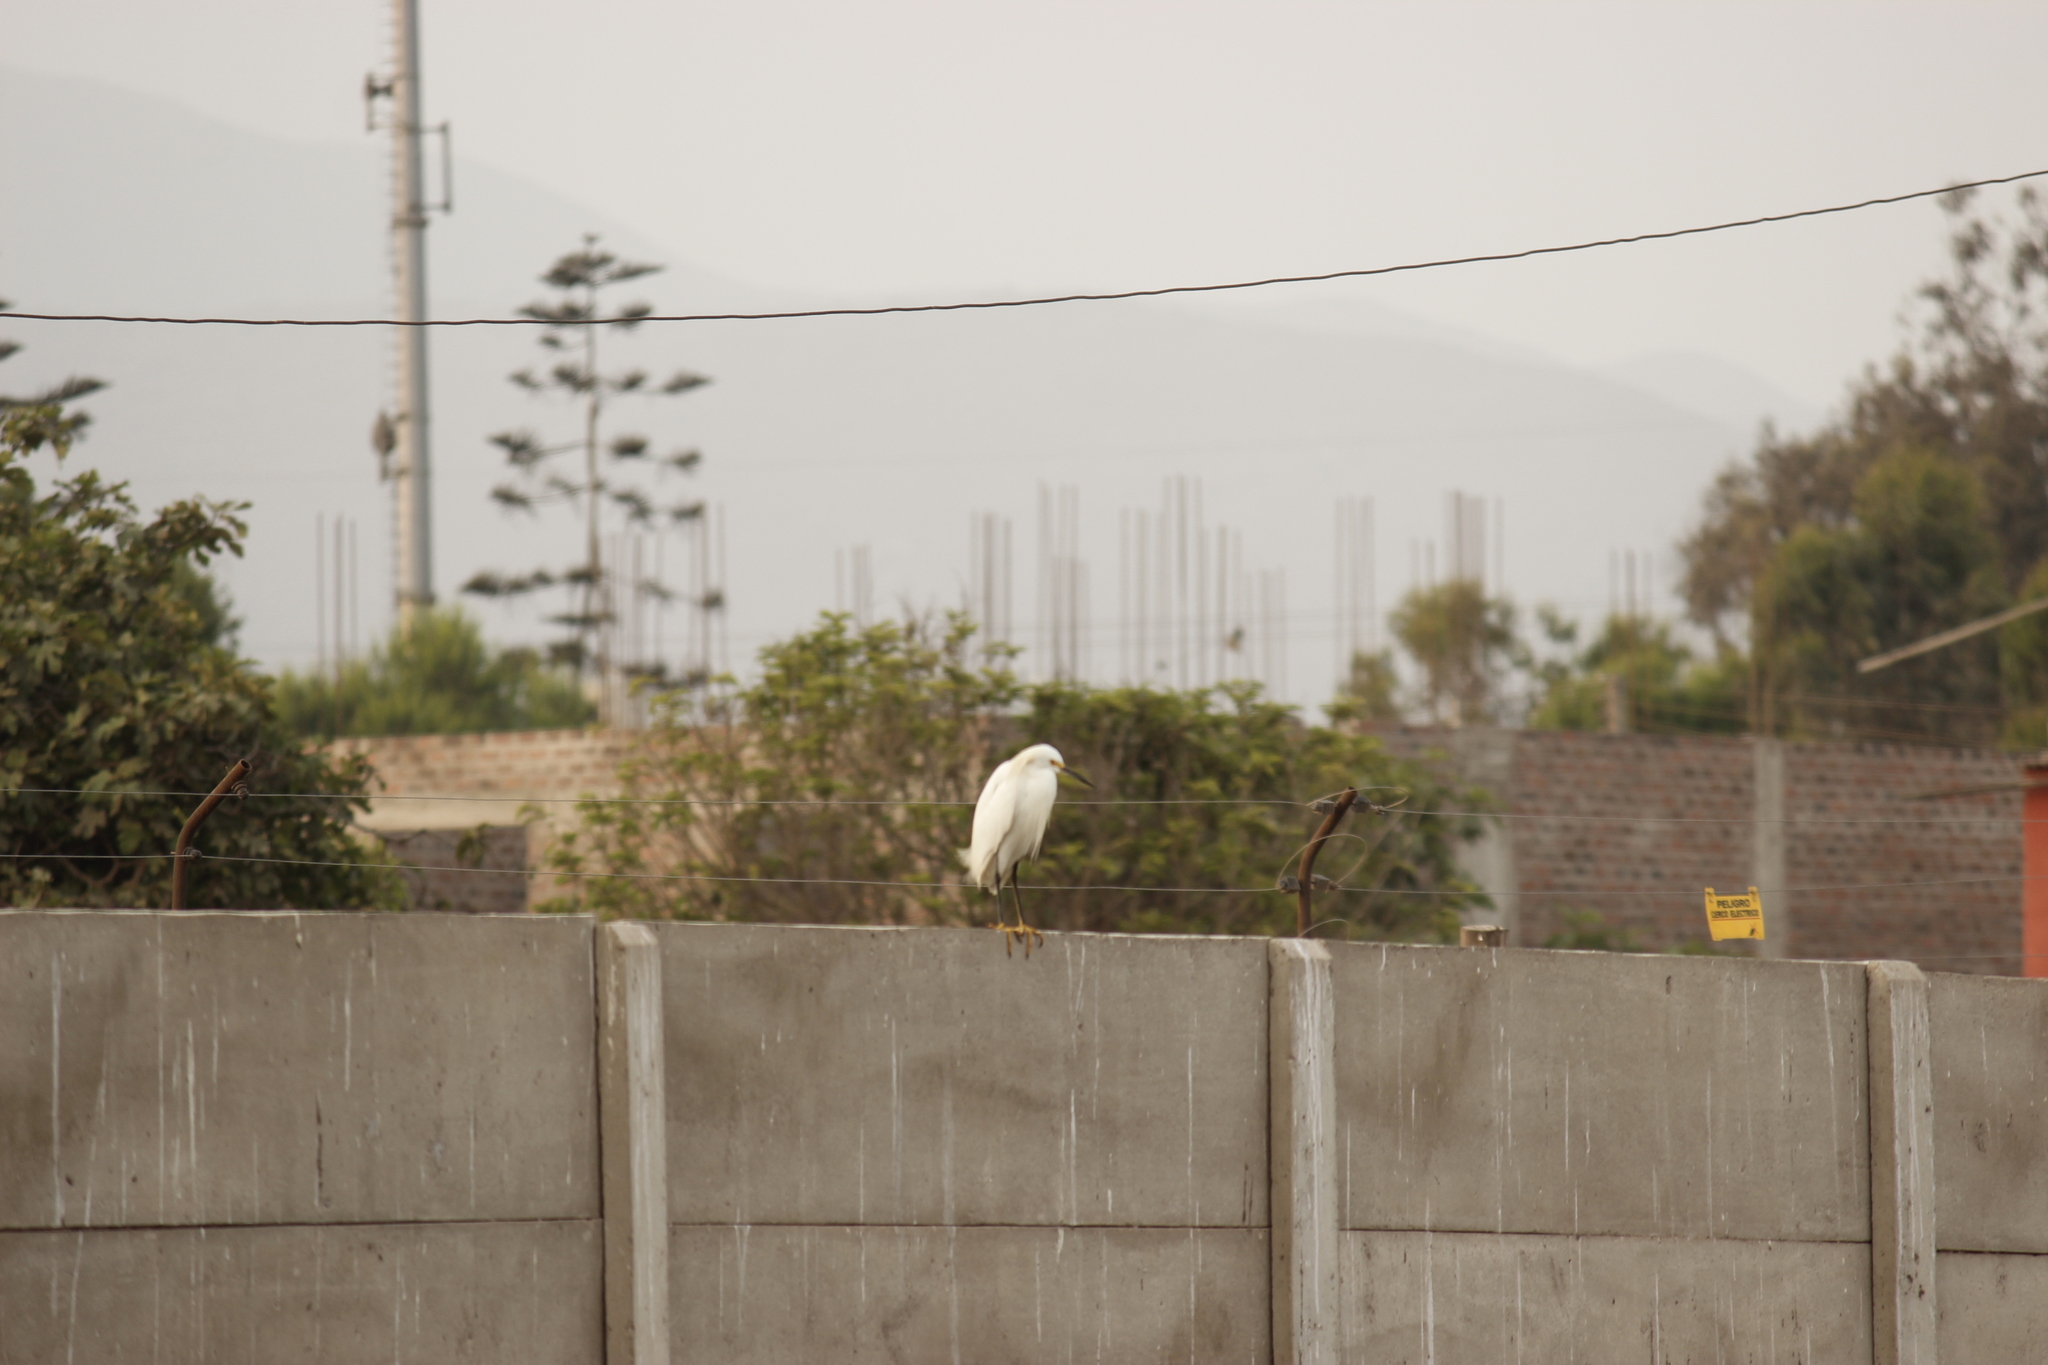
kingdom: Animalia
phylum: Chordata
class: Aves
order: Pelecaniformes
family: Ardeidae
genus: Egretta
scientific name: Egretta thula
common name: Snowy egret
